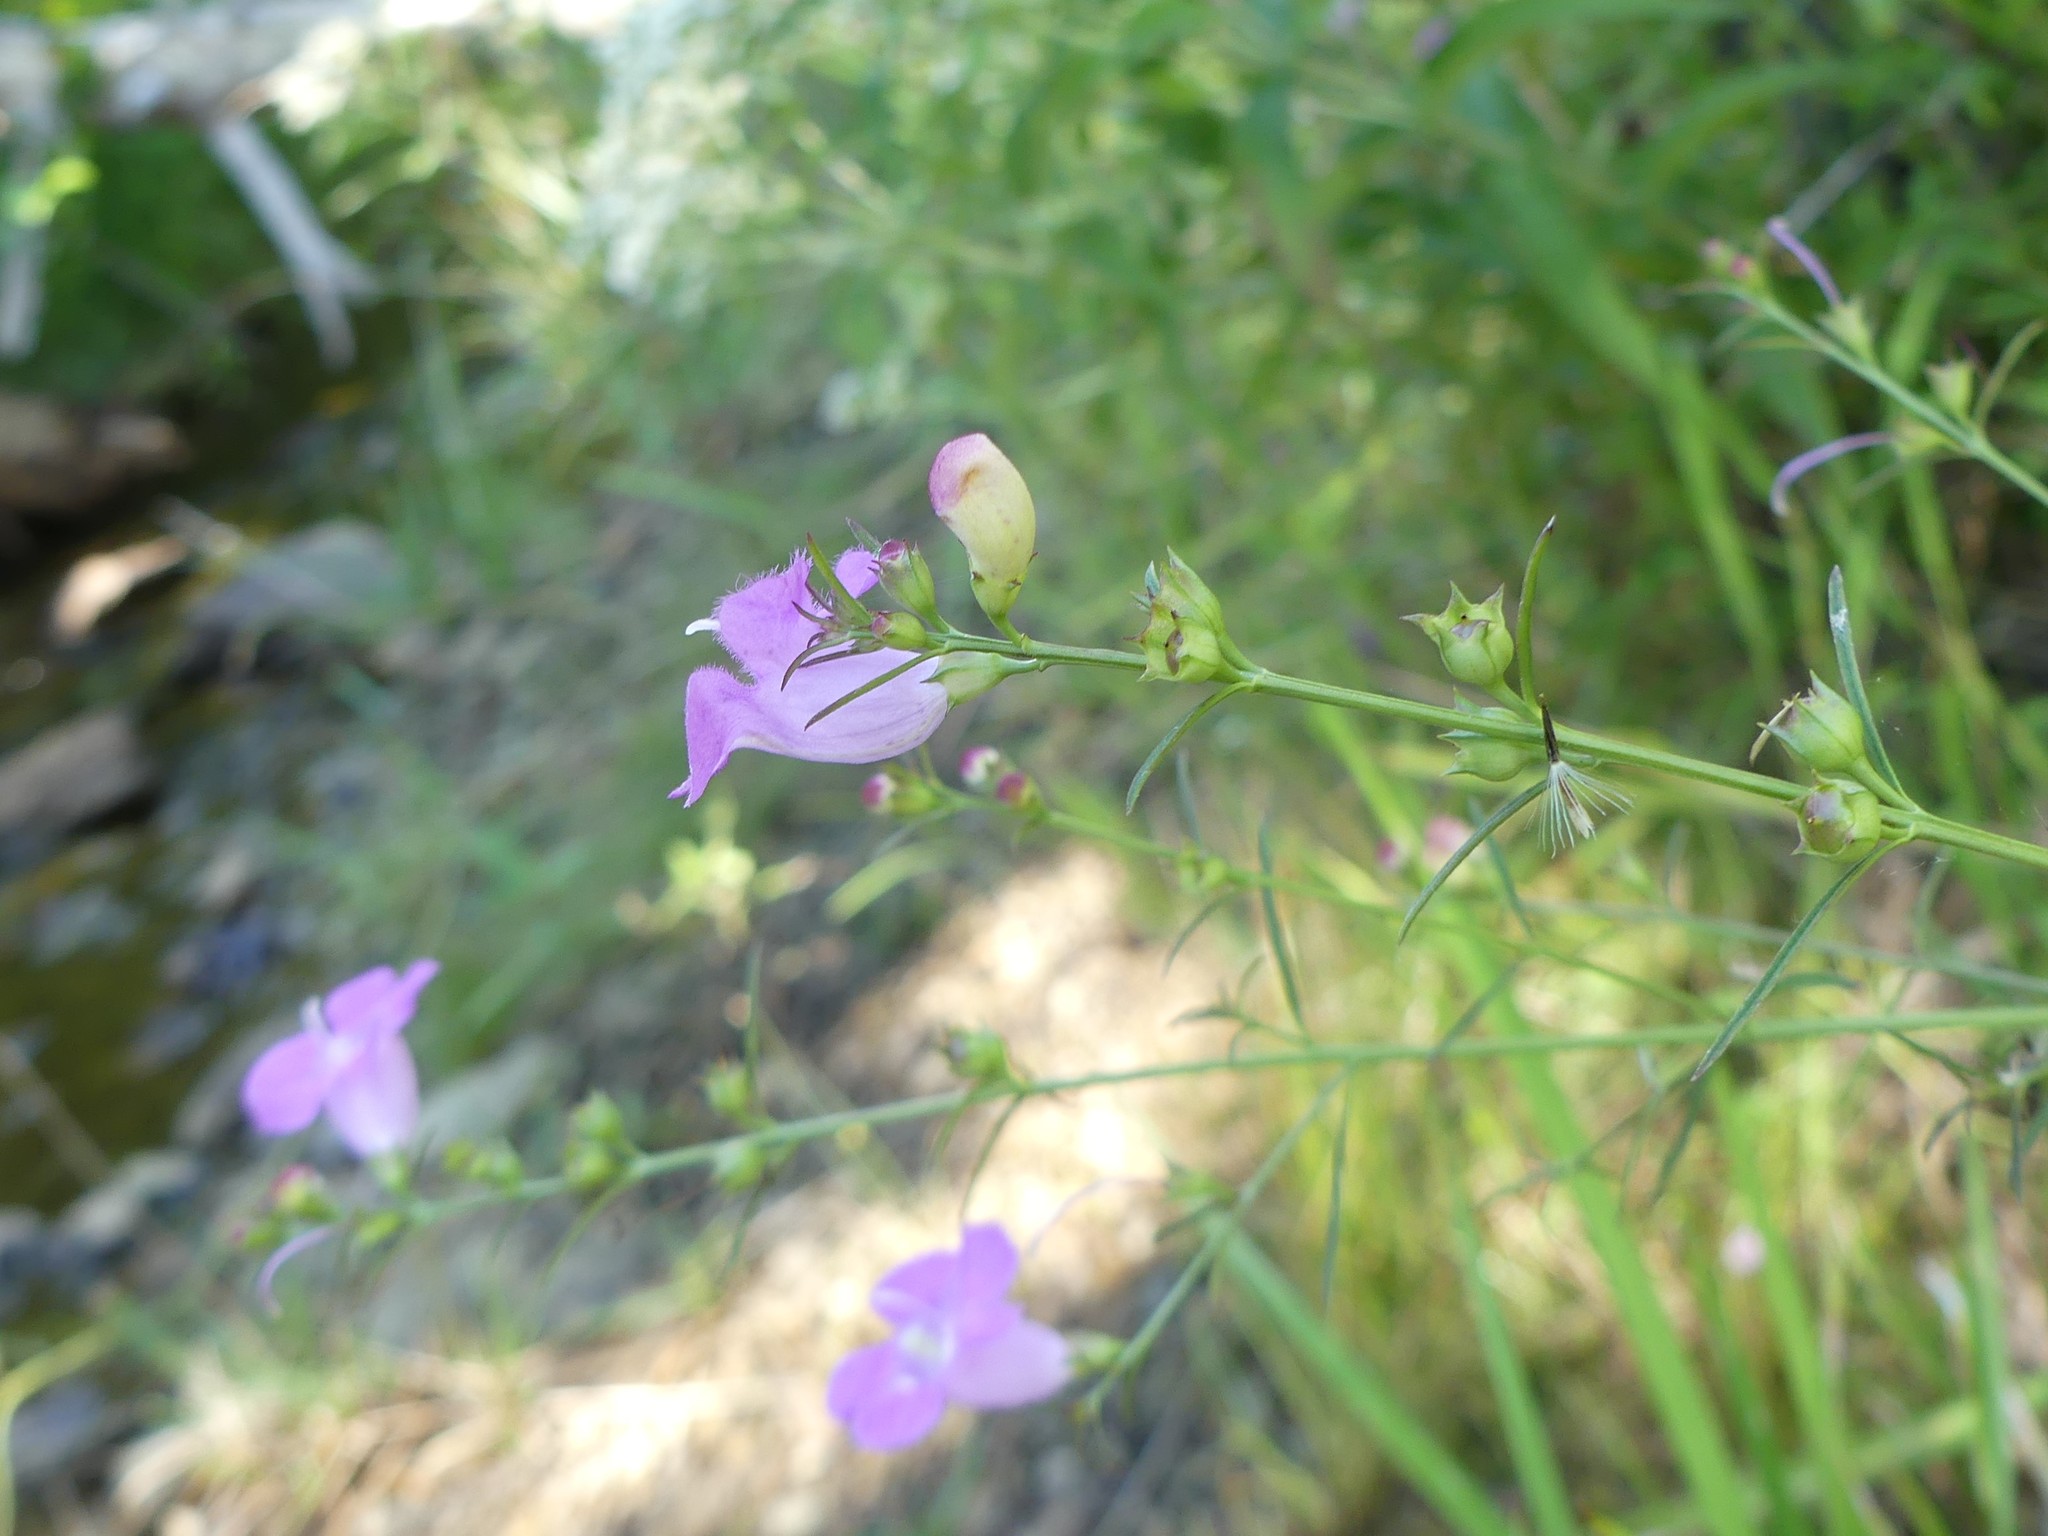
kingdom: Plantae
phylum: Tracheophyta
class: Magnoliopsida
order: Lamiales
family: Orobanchaceae
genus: Agalinis
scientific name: Agalinis purpurea
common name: Purple false foxglove
